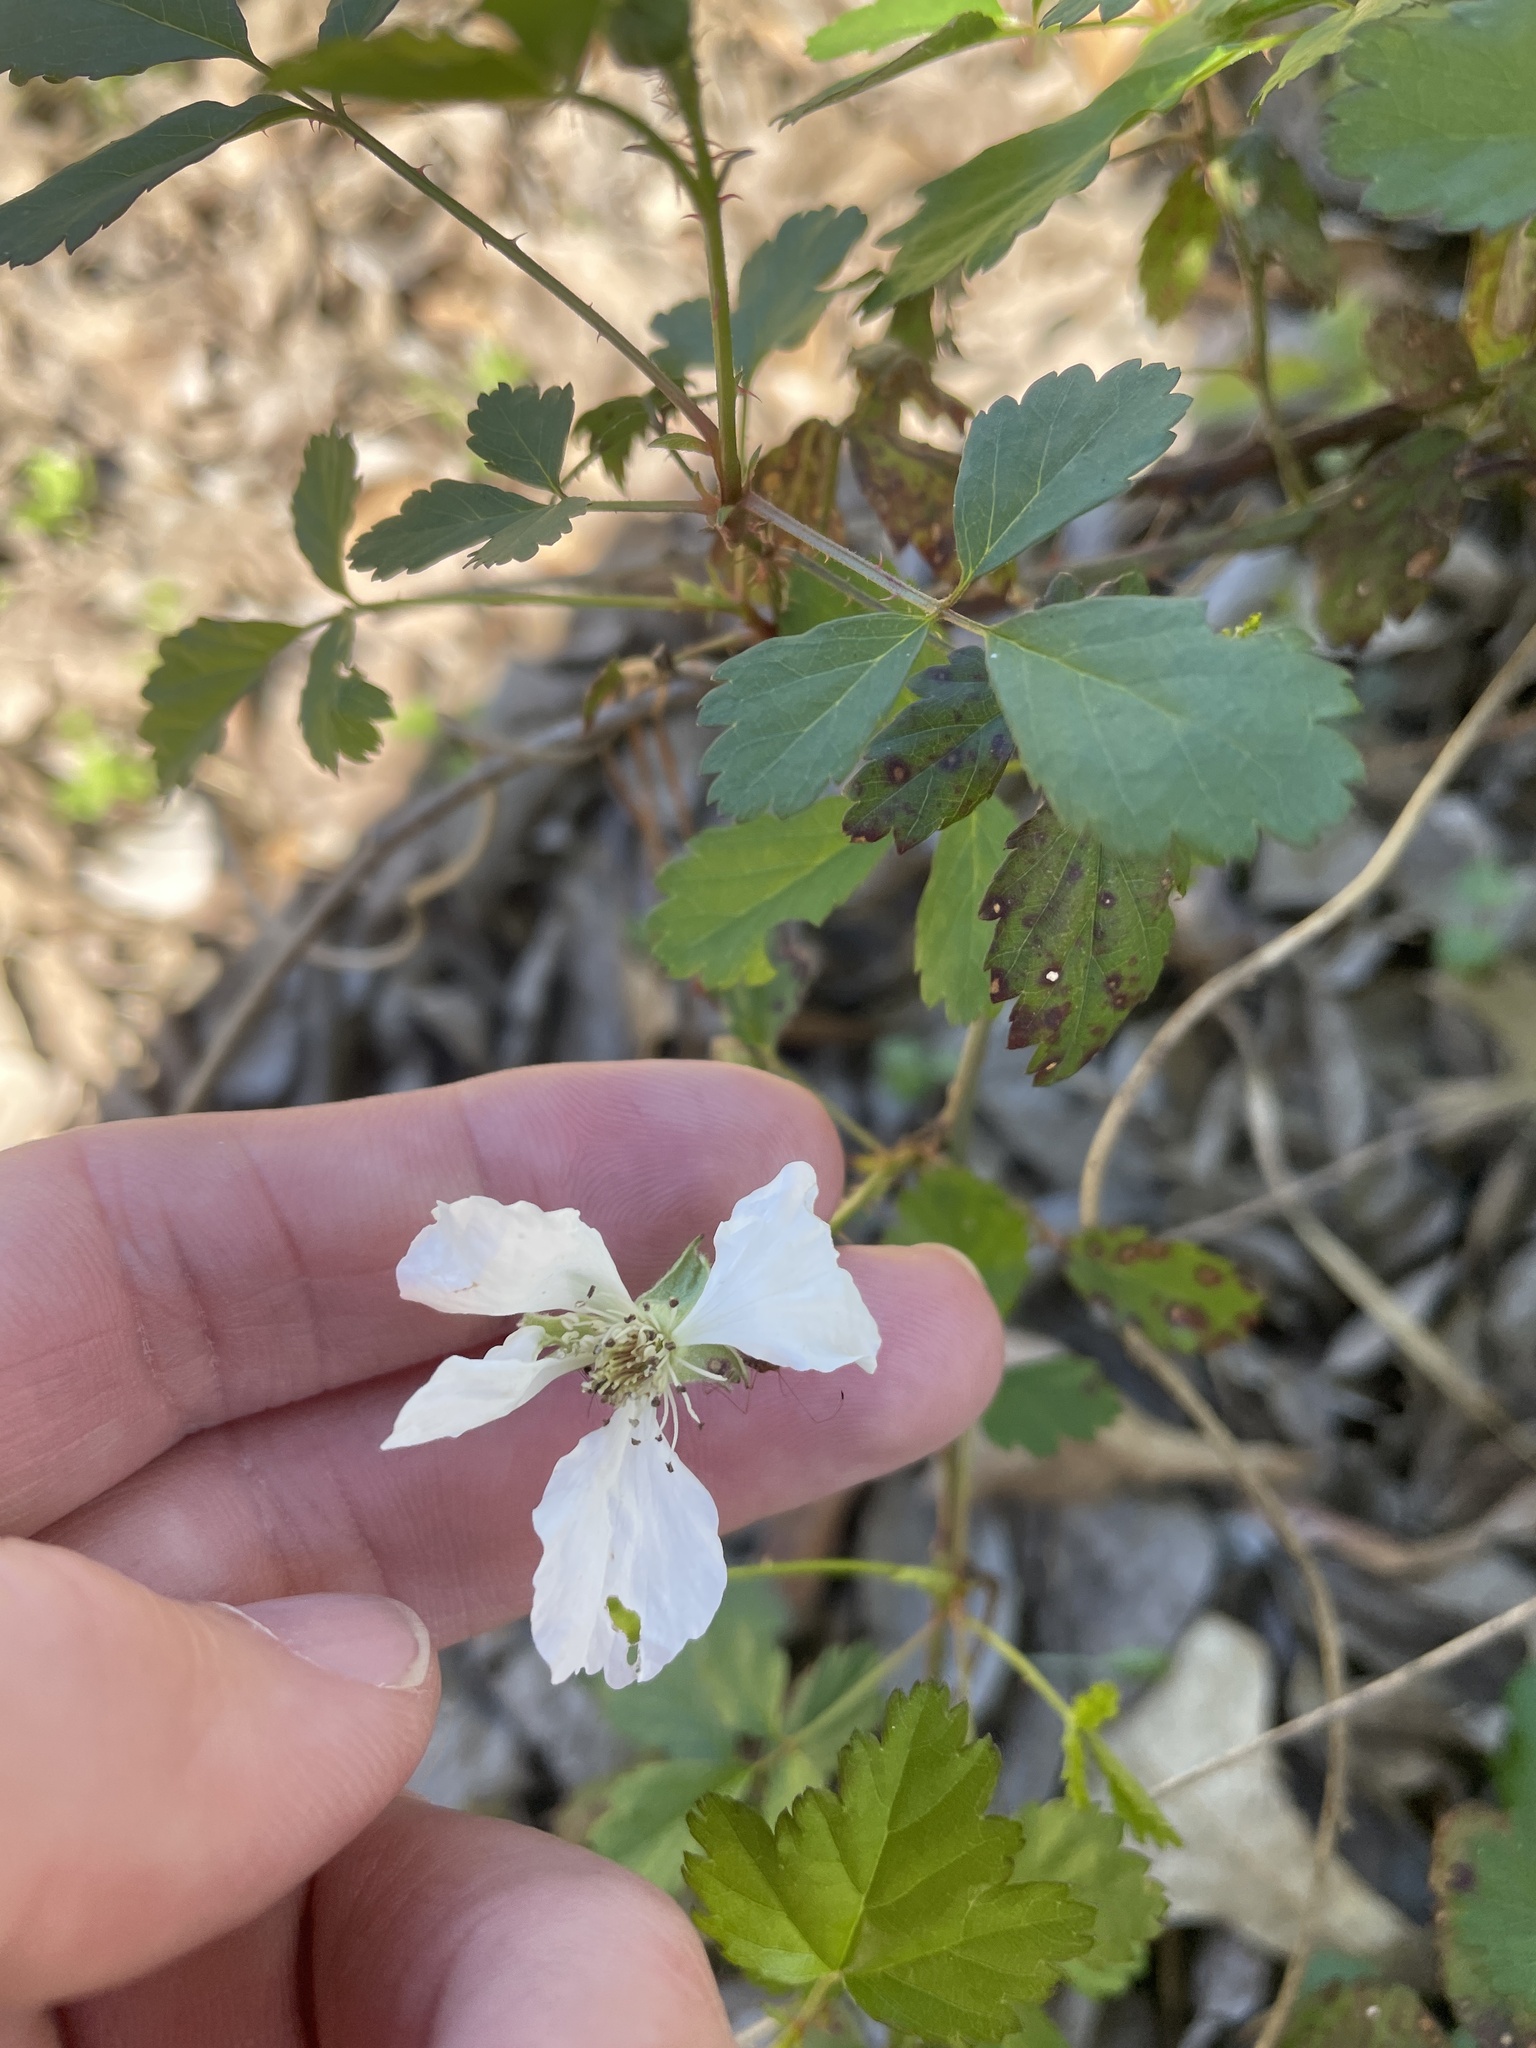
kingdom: Plantae
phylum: Tracheophyta
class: Magnoliopsida
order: Rosales
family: Rosaceae
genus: Rubus
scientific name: Rubus trivialis
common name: Southern dewberry
